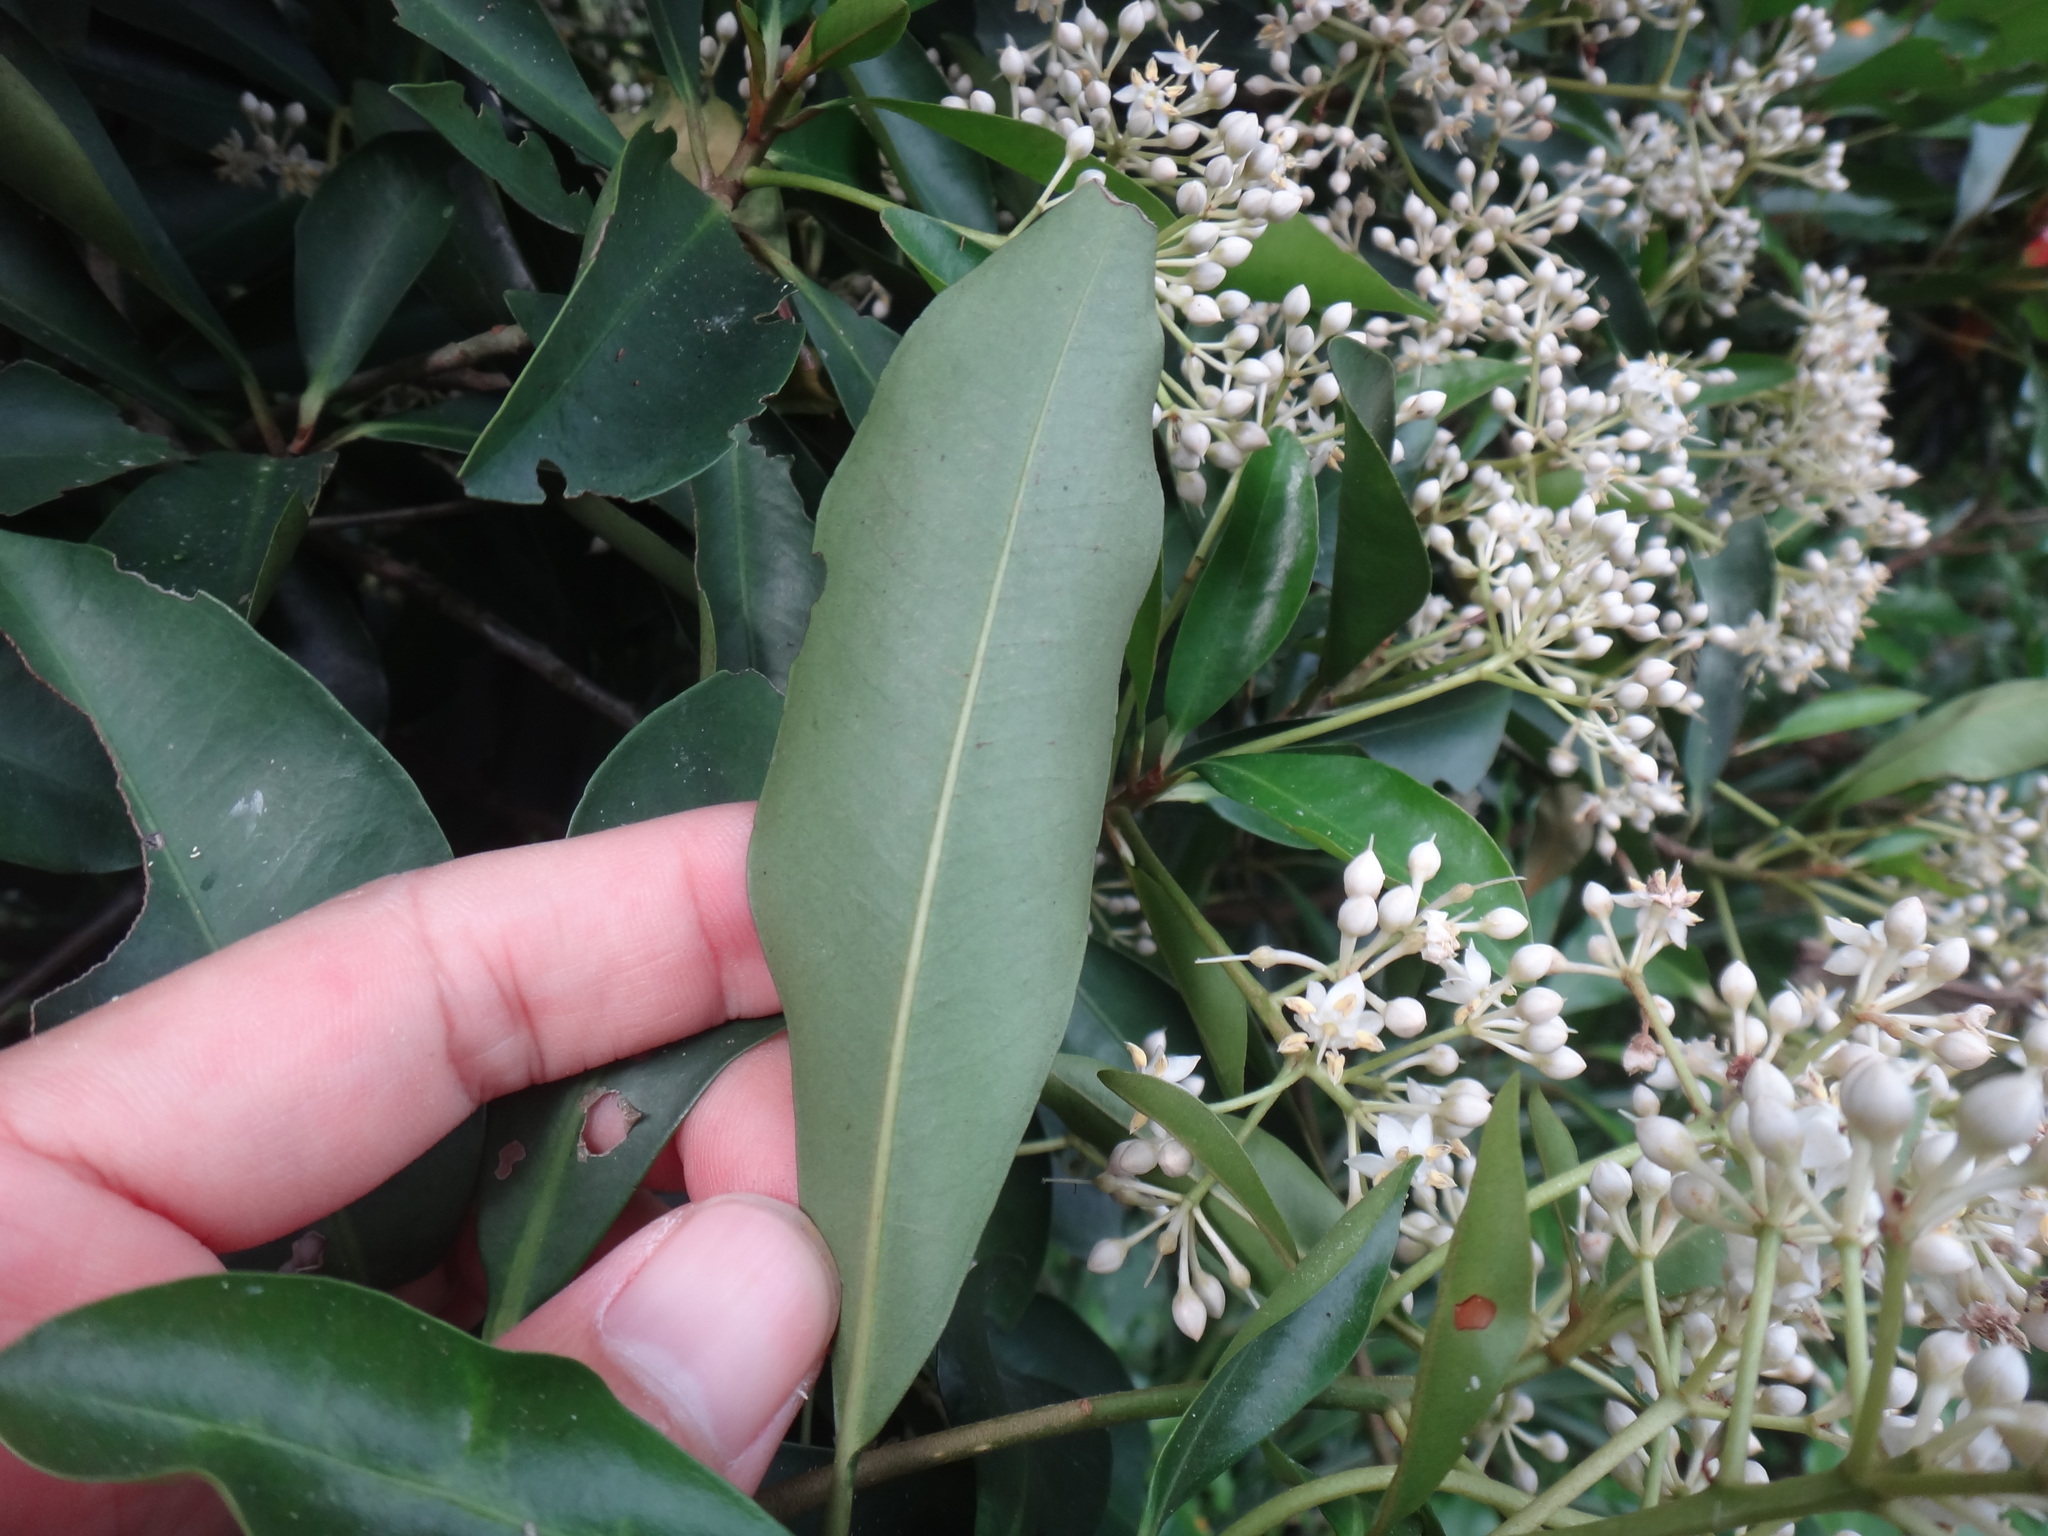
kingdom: Plantae
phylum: Tracheophyta
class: Magnoliopsida
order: Ericales
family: Primulaceae
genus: Ardisia
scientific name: Ardisia sieboldii
